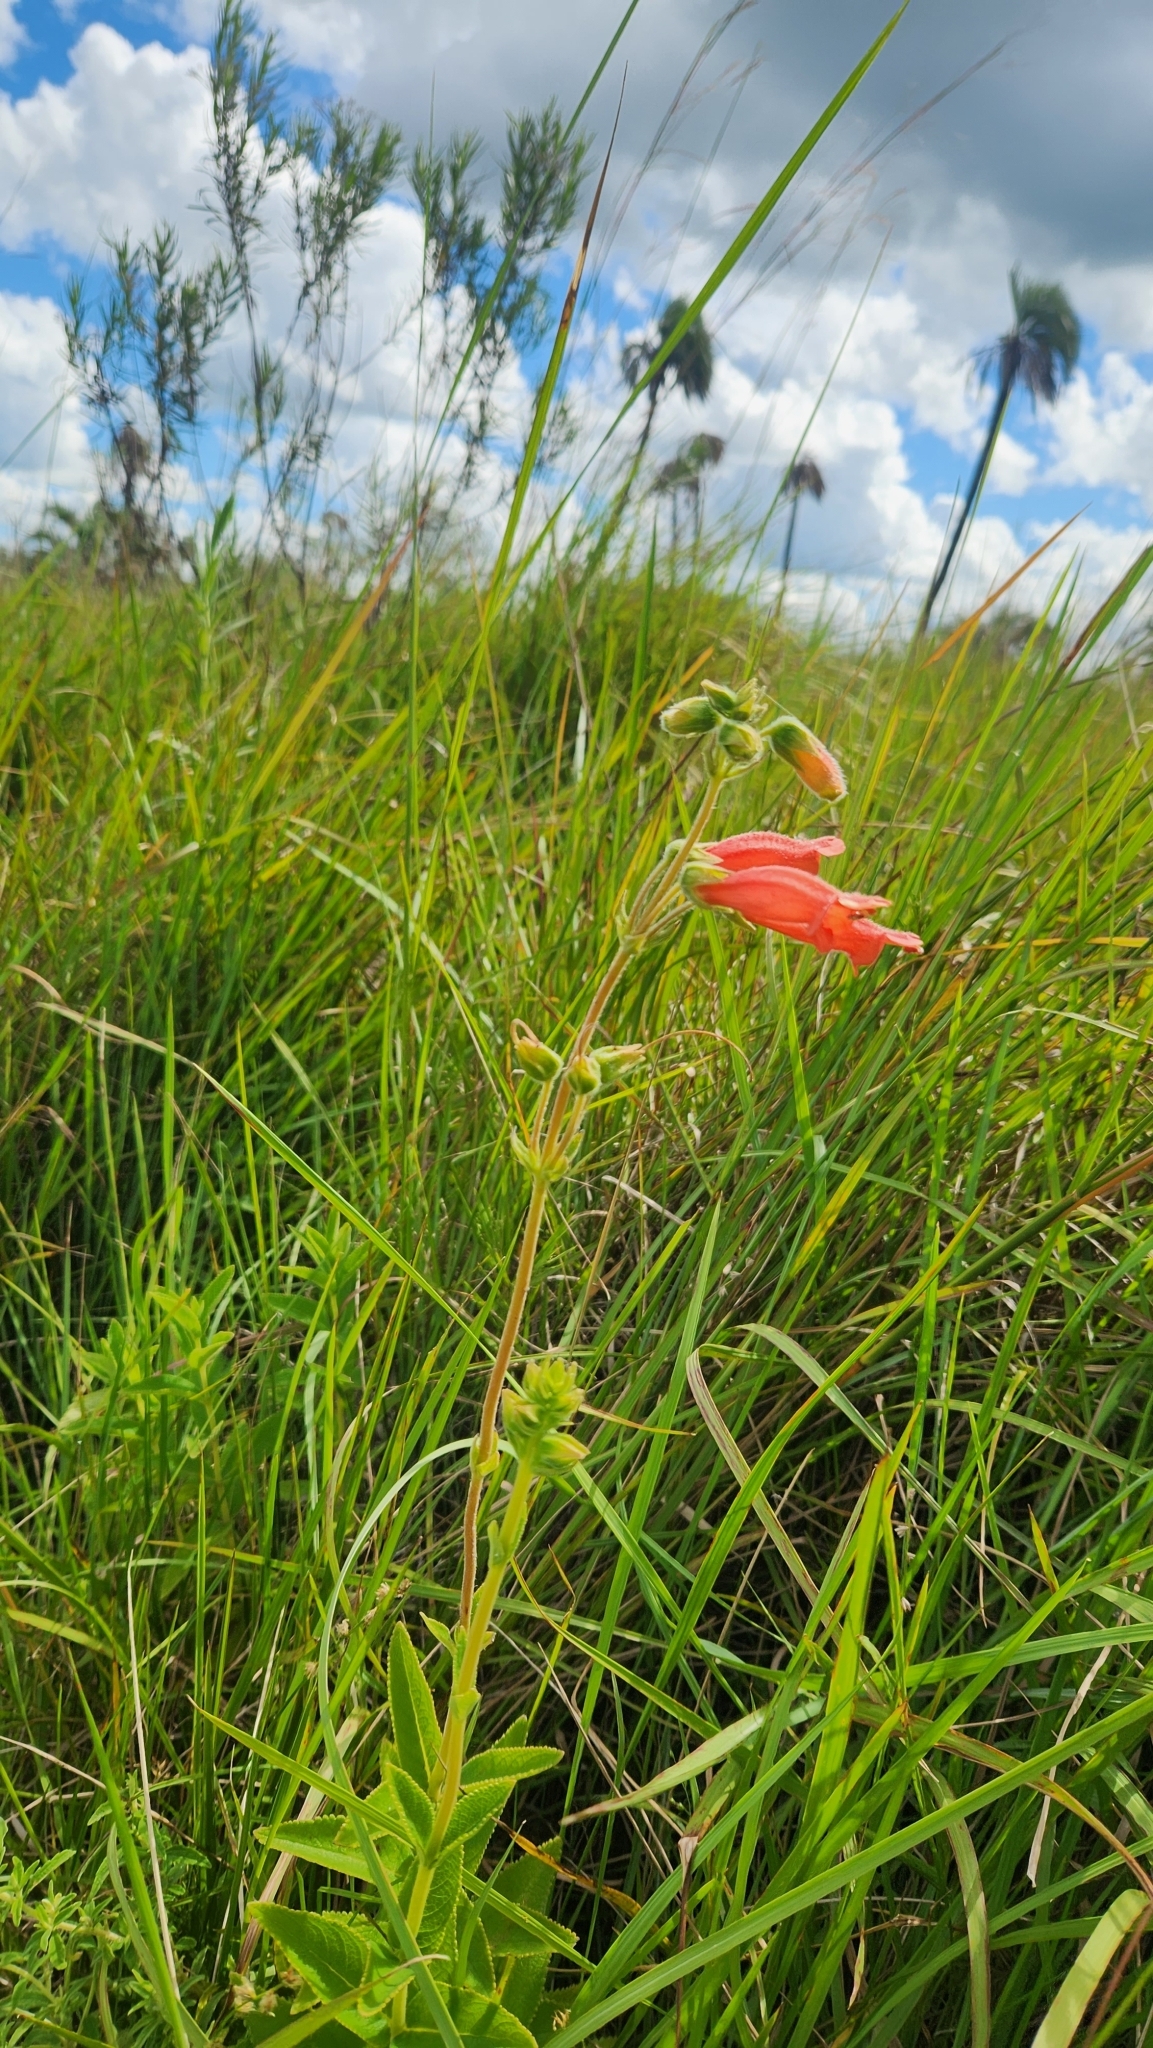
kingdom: Plantae
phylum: Tracheophyta
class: Magnoliopsida
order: Lamiales
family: Gesneriaceae
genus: Sinningia
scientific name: Sinningia elatior
